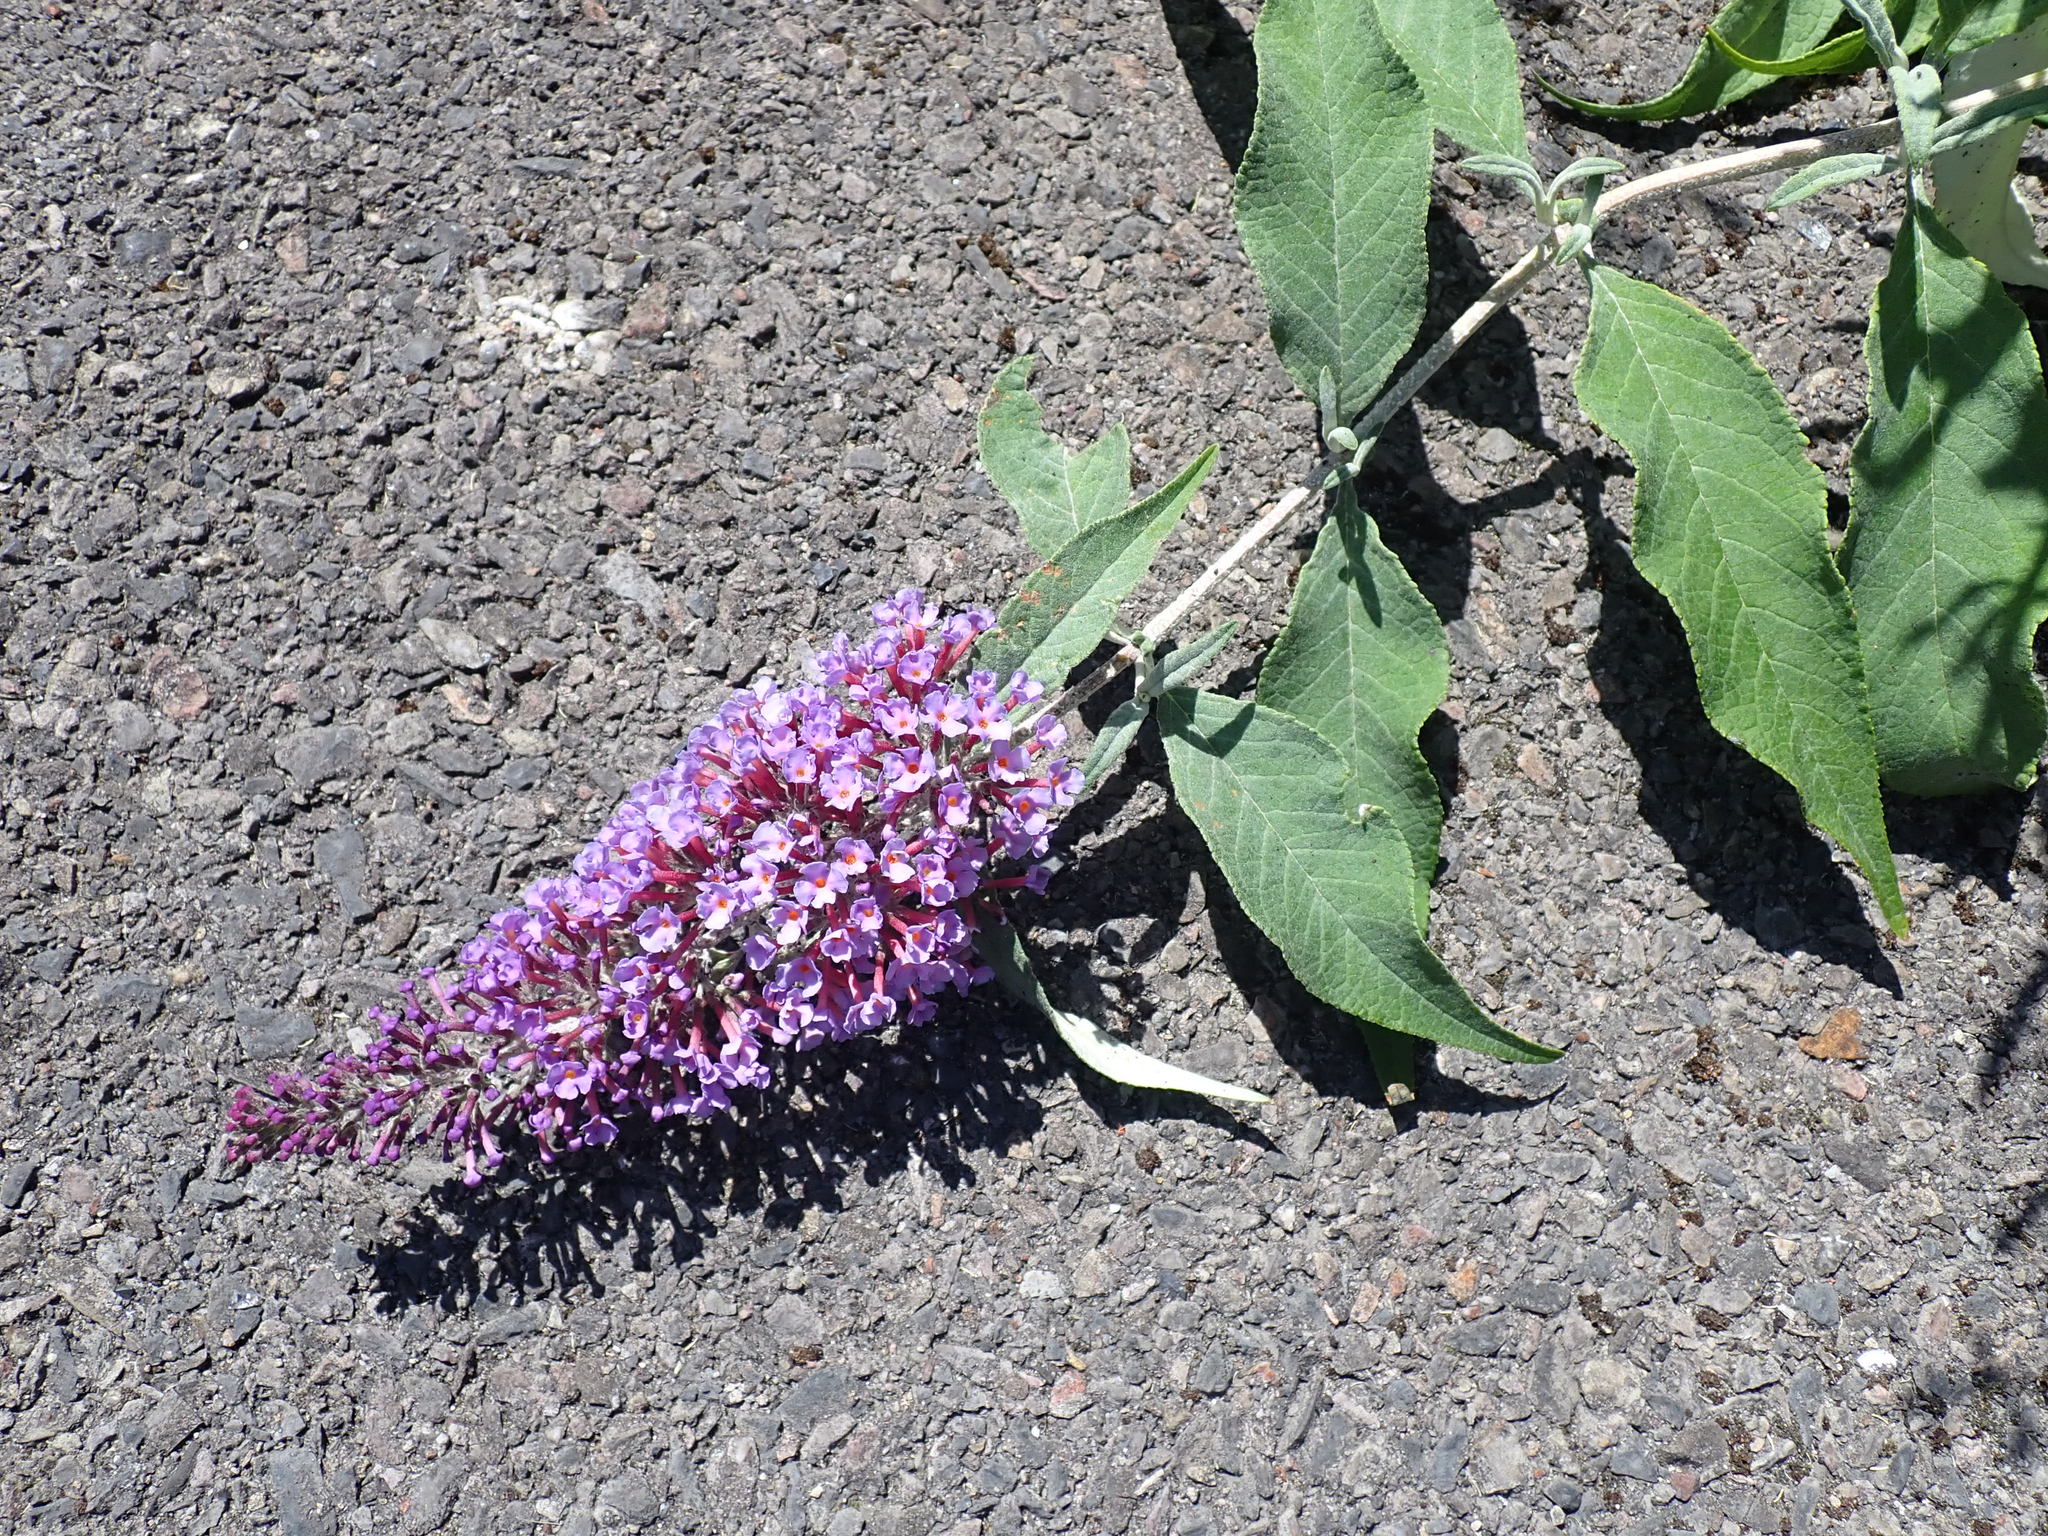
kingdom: Plantae
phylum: Tracheophyta
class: Magnoliopsida
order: Lamiales
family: Scrophulariaceae
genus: Buddleja
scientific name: Buddleja davidii
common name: Butterfly-bush
